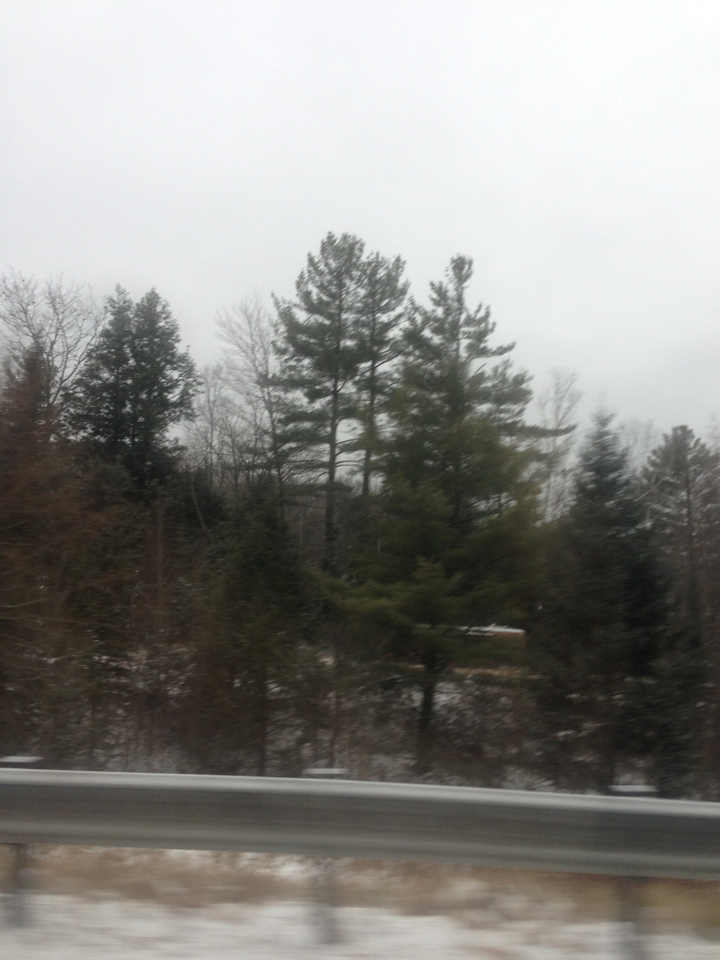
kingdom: Plantae
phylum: Tracheophyta
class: Pinopsida
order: Pinales
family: Pinaceae
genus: Pinus
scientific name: Pinus strobus
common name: Weymouth pine
